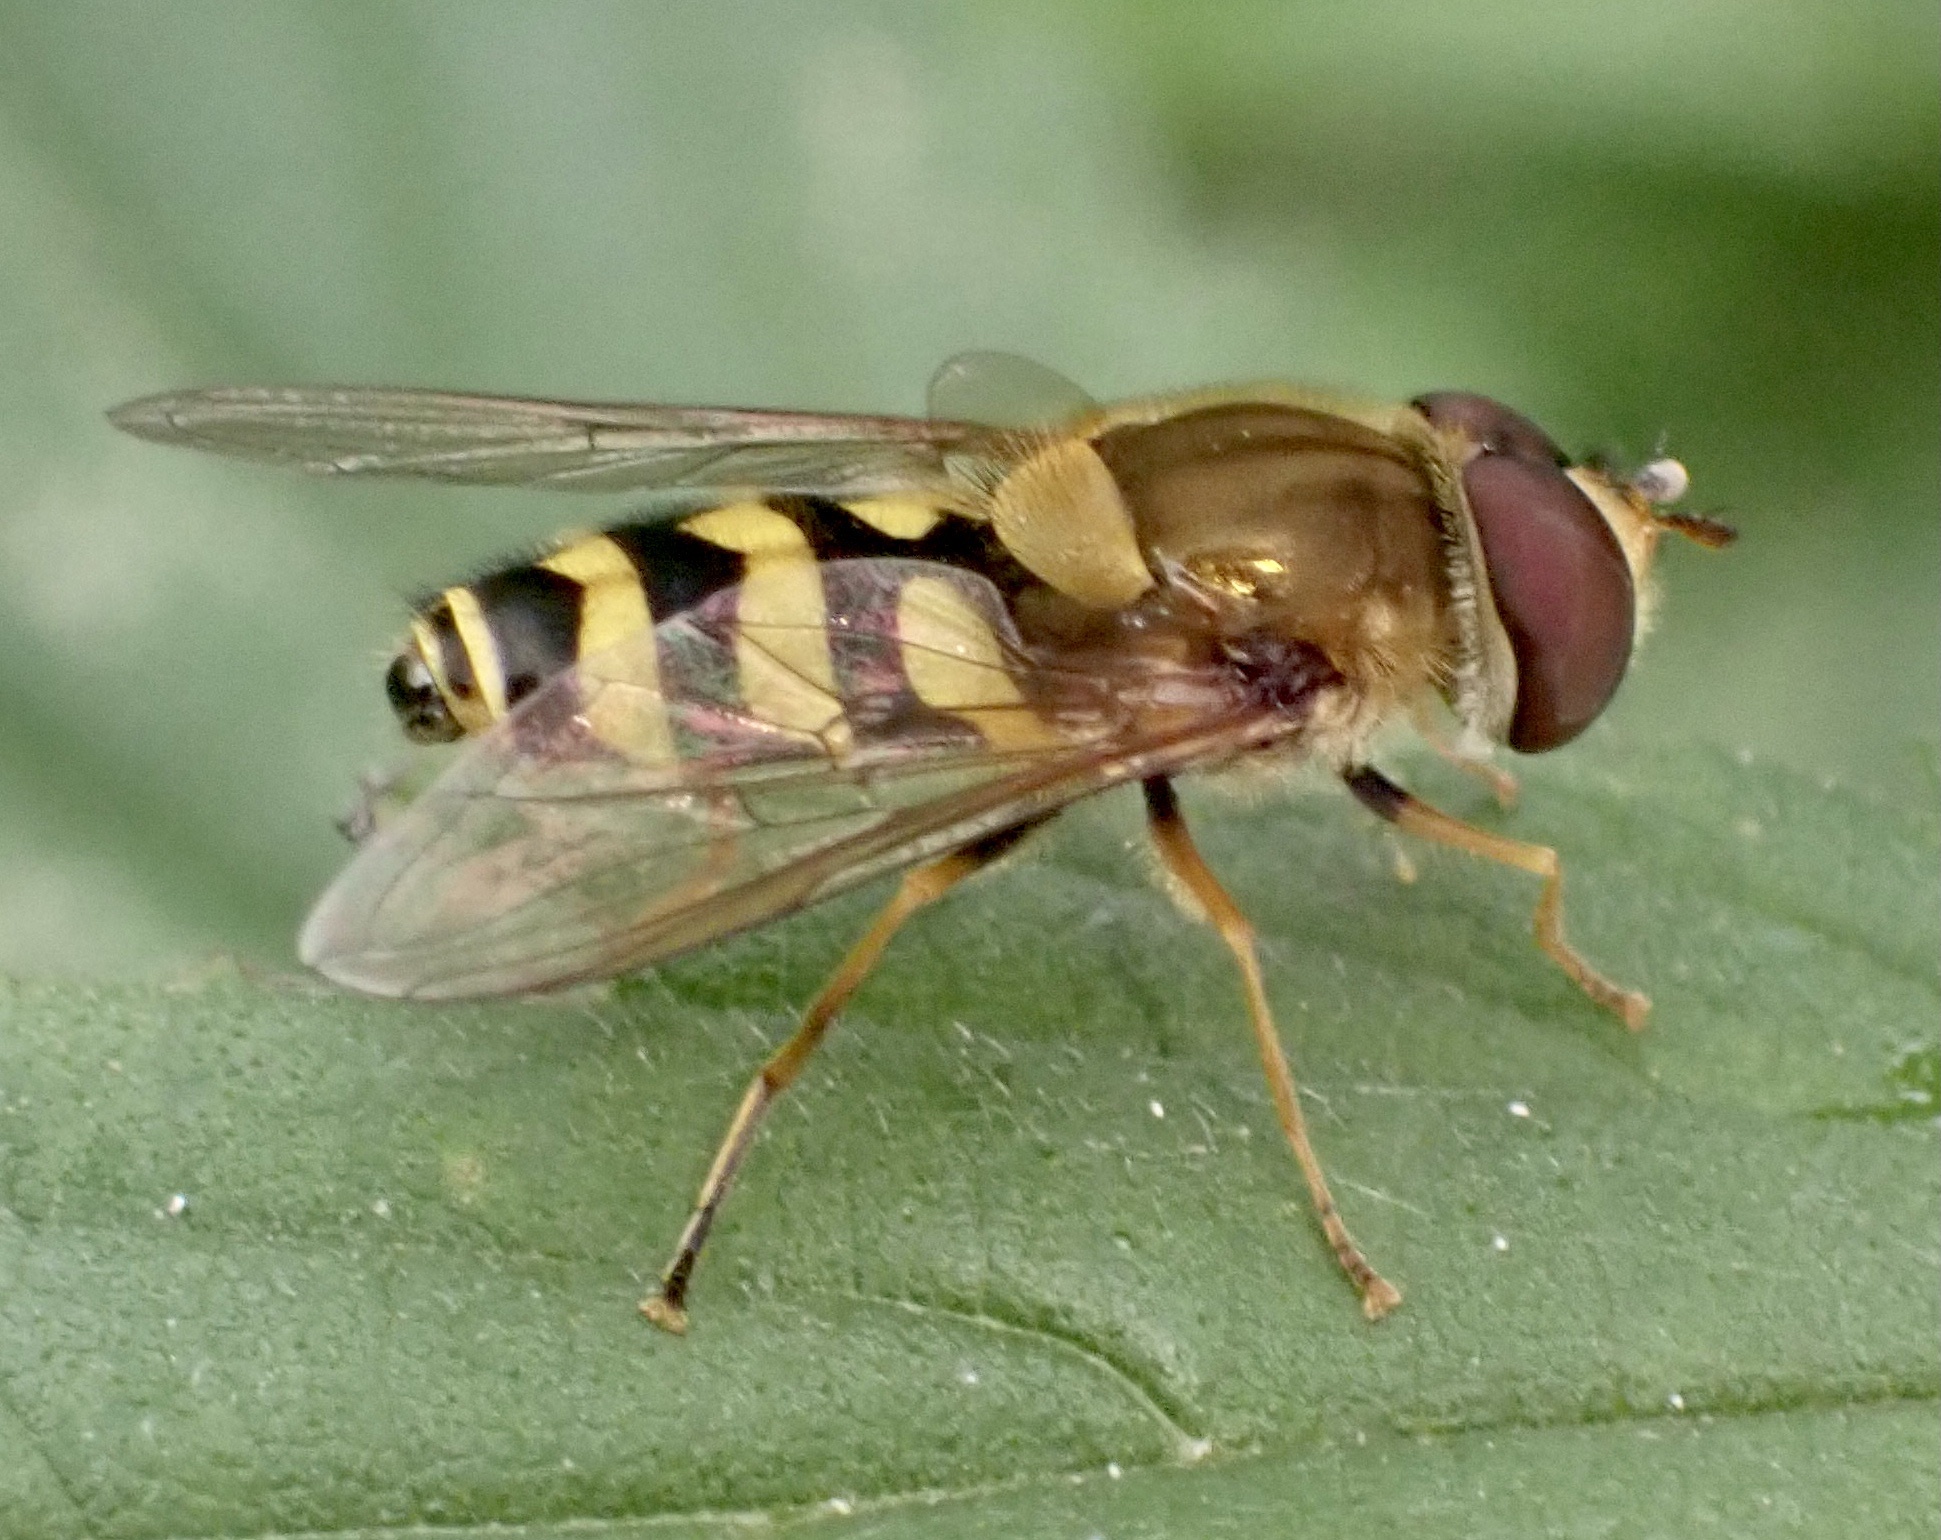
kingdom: Animalia
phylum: Arthropoda
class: Insecta
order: Diptera
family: Syrphidae
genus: Syrphus
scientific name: Syrphus
